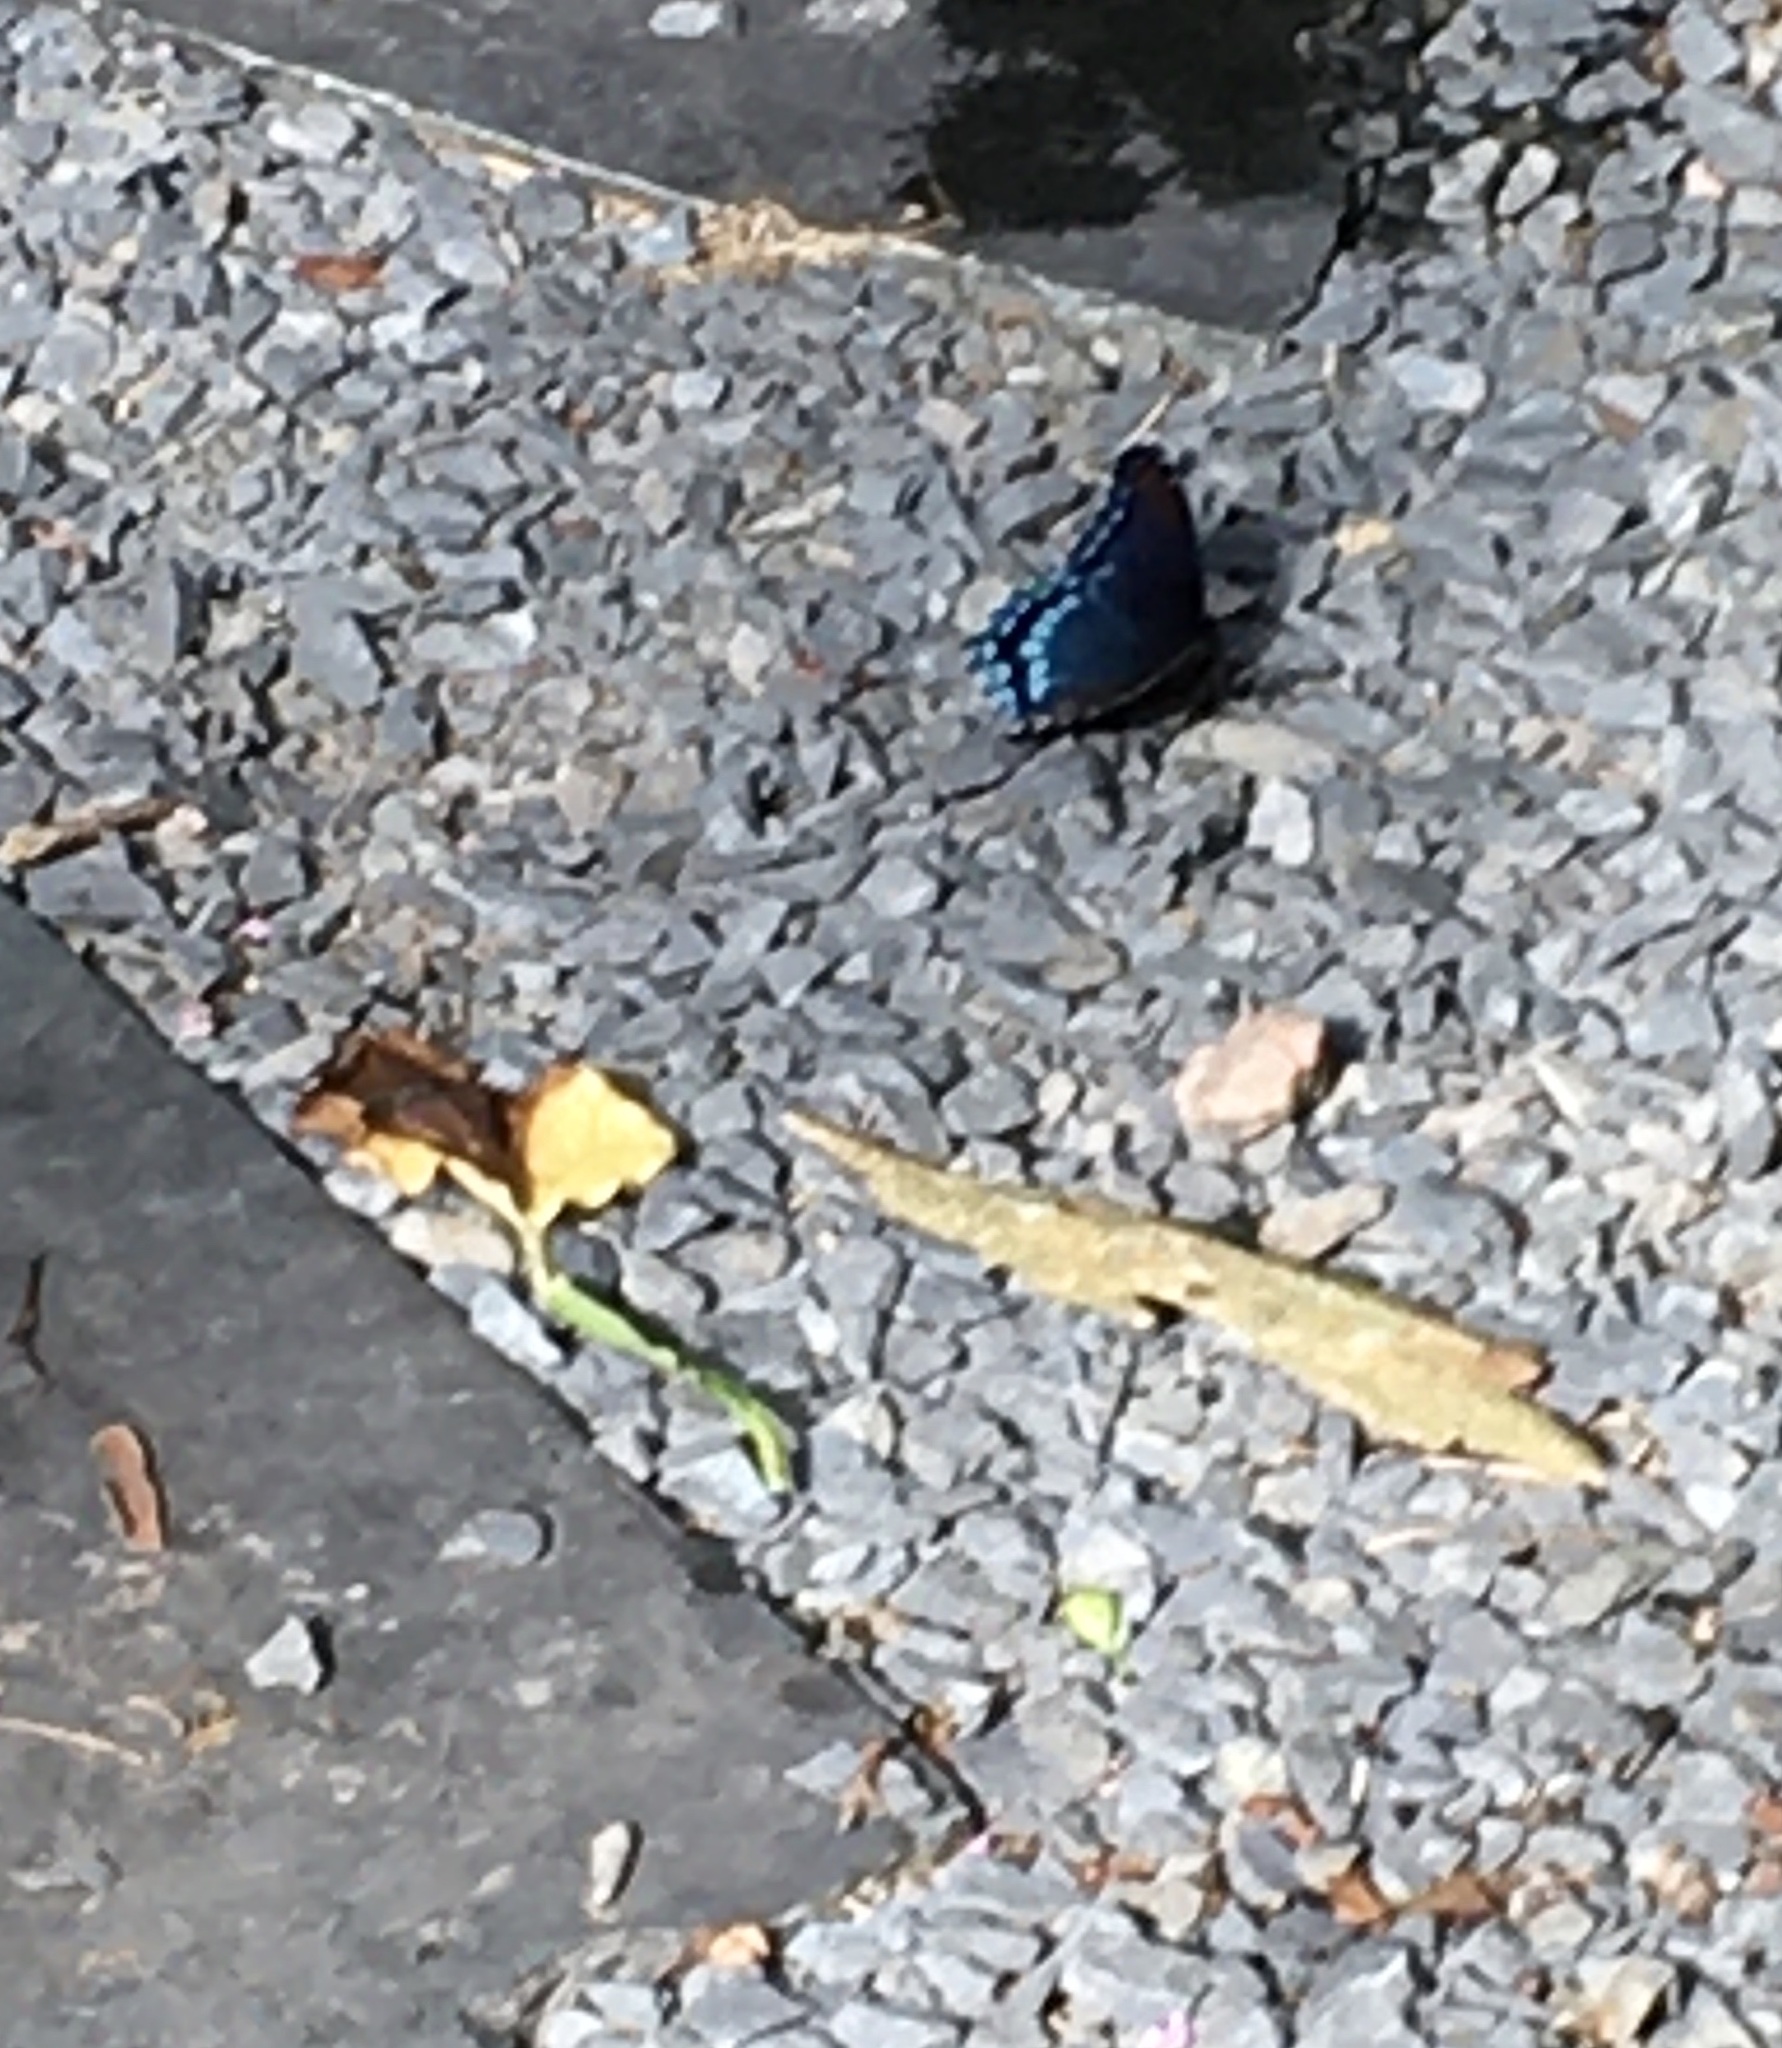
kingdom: Animalia
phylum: Arthropoda
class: Insecta
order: Lepidoptera
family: Nymphalidae
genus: Limenitis
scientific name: Limenitis astyanax
